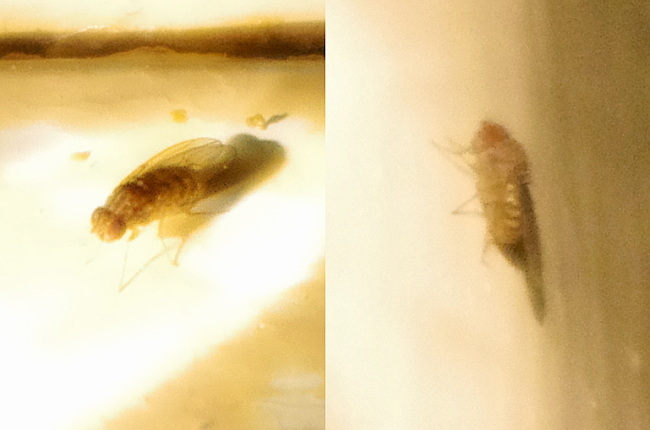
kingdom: Animalia
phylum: Arthropoda
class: Insecta
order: Diptera
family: Drosophilidae
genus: Drosophila
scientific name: Drosophila
